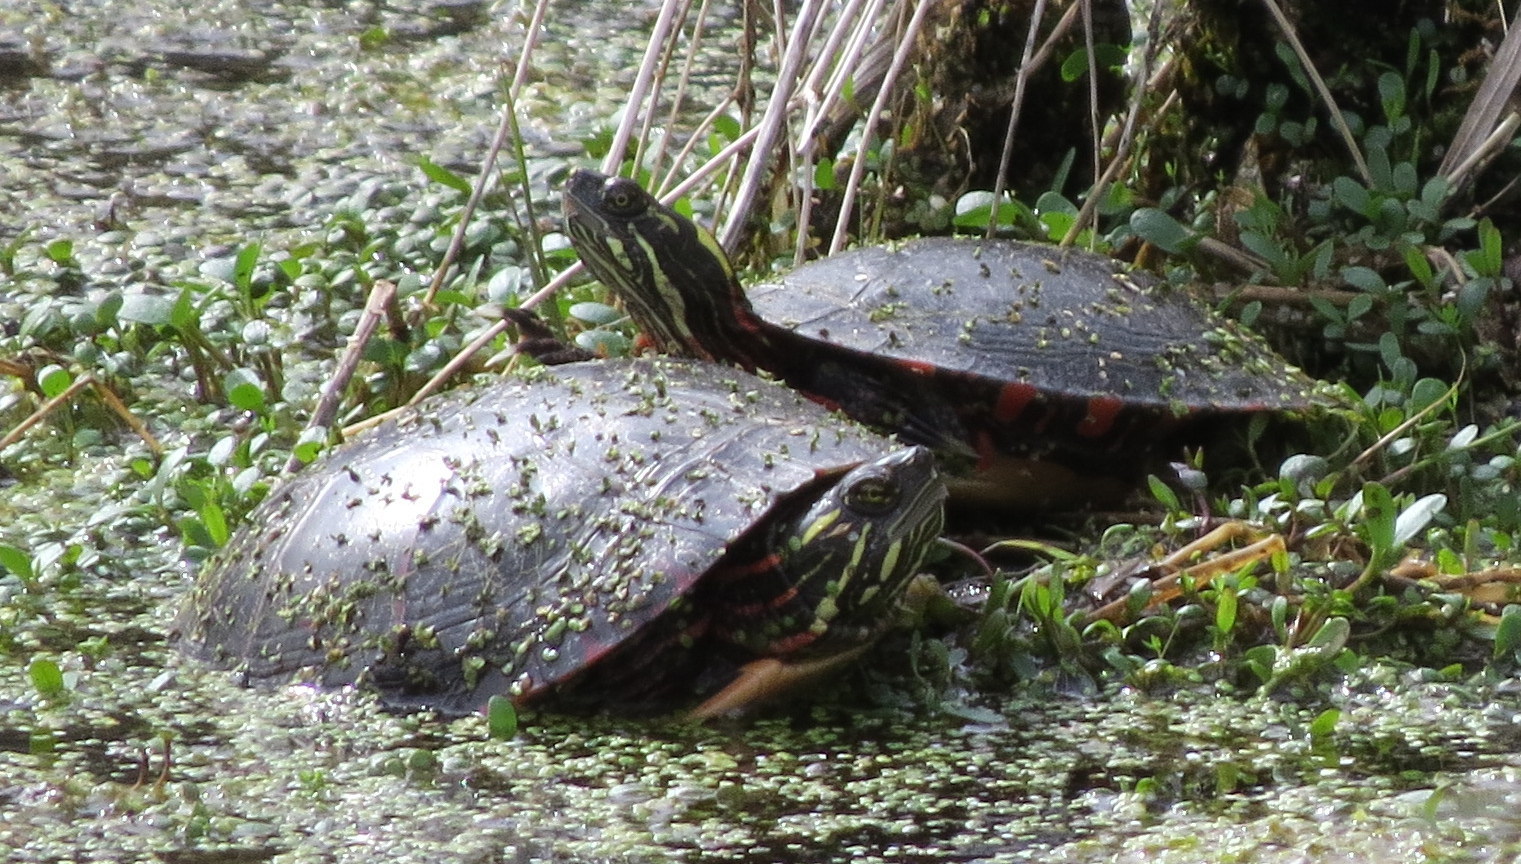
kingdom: Animalia
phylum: Chordata
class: Testudines
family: Emydidae
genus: Chrysemys
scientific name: Chrysemys picta
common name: Painted turtle
